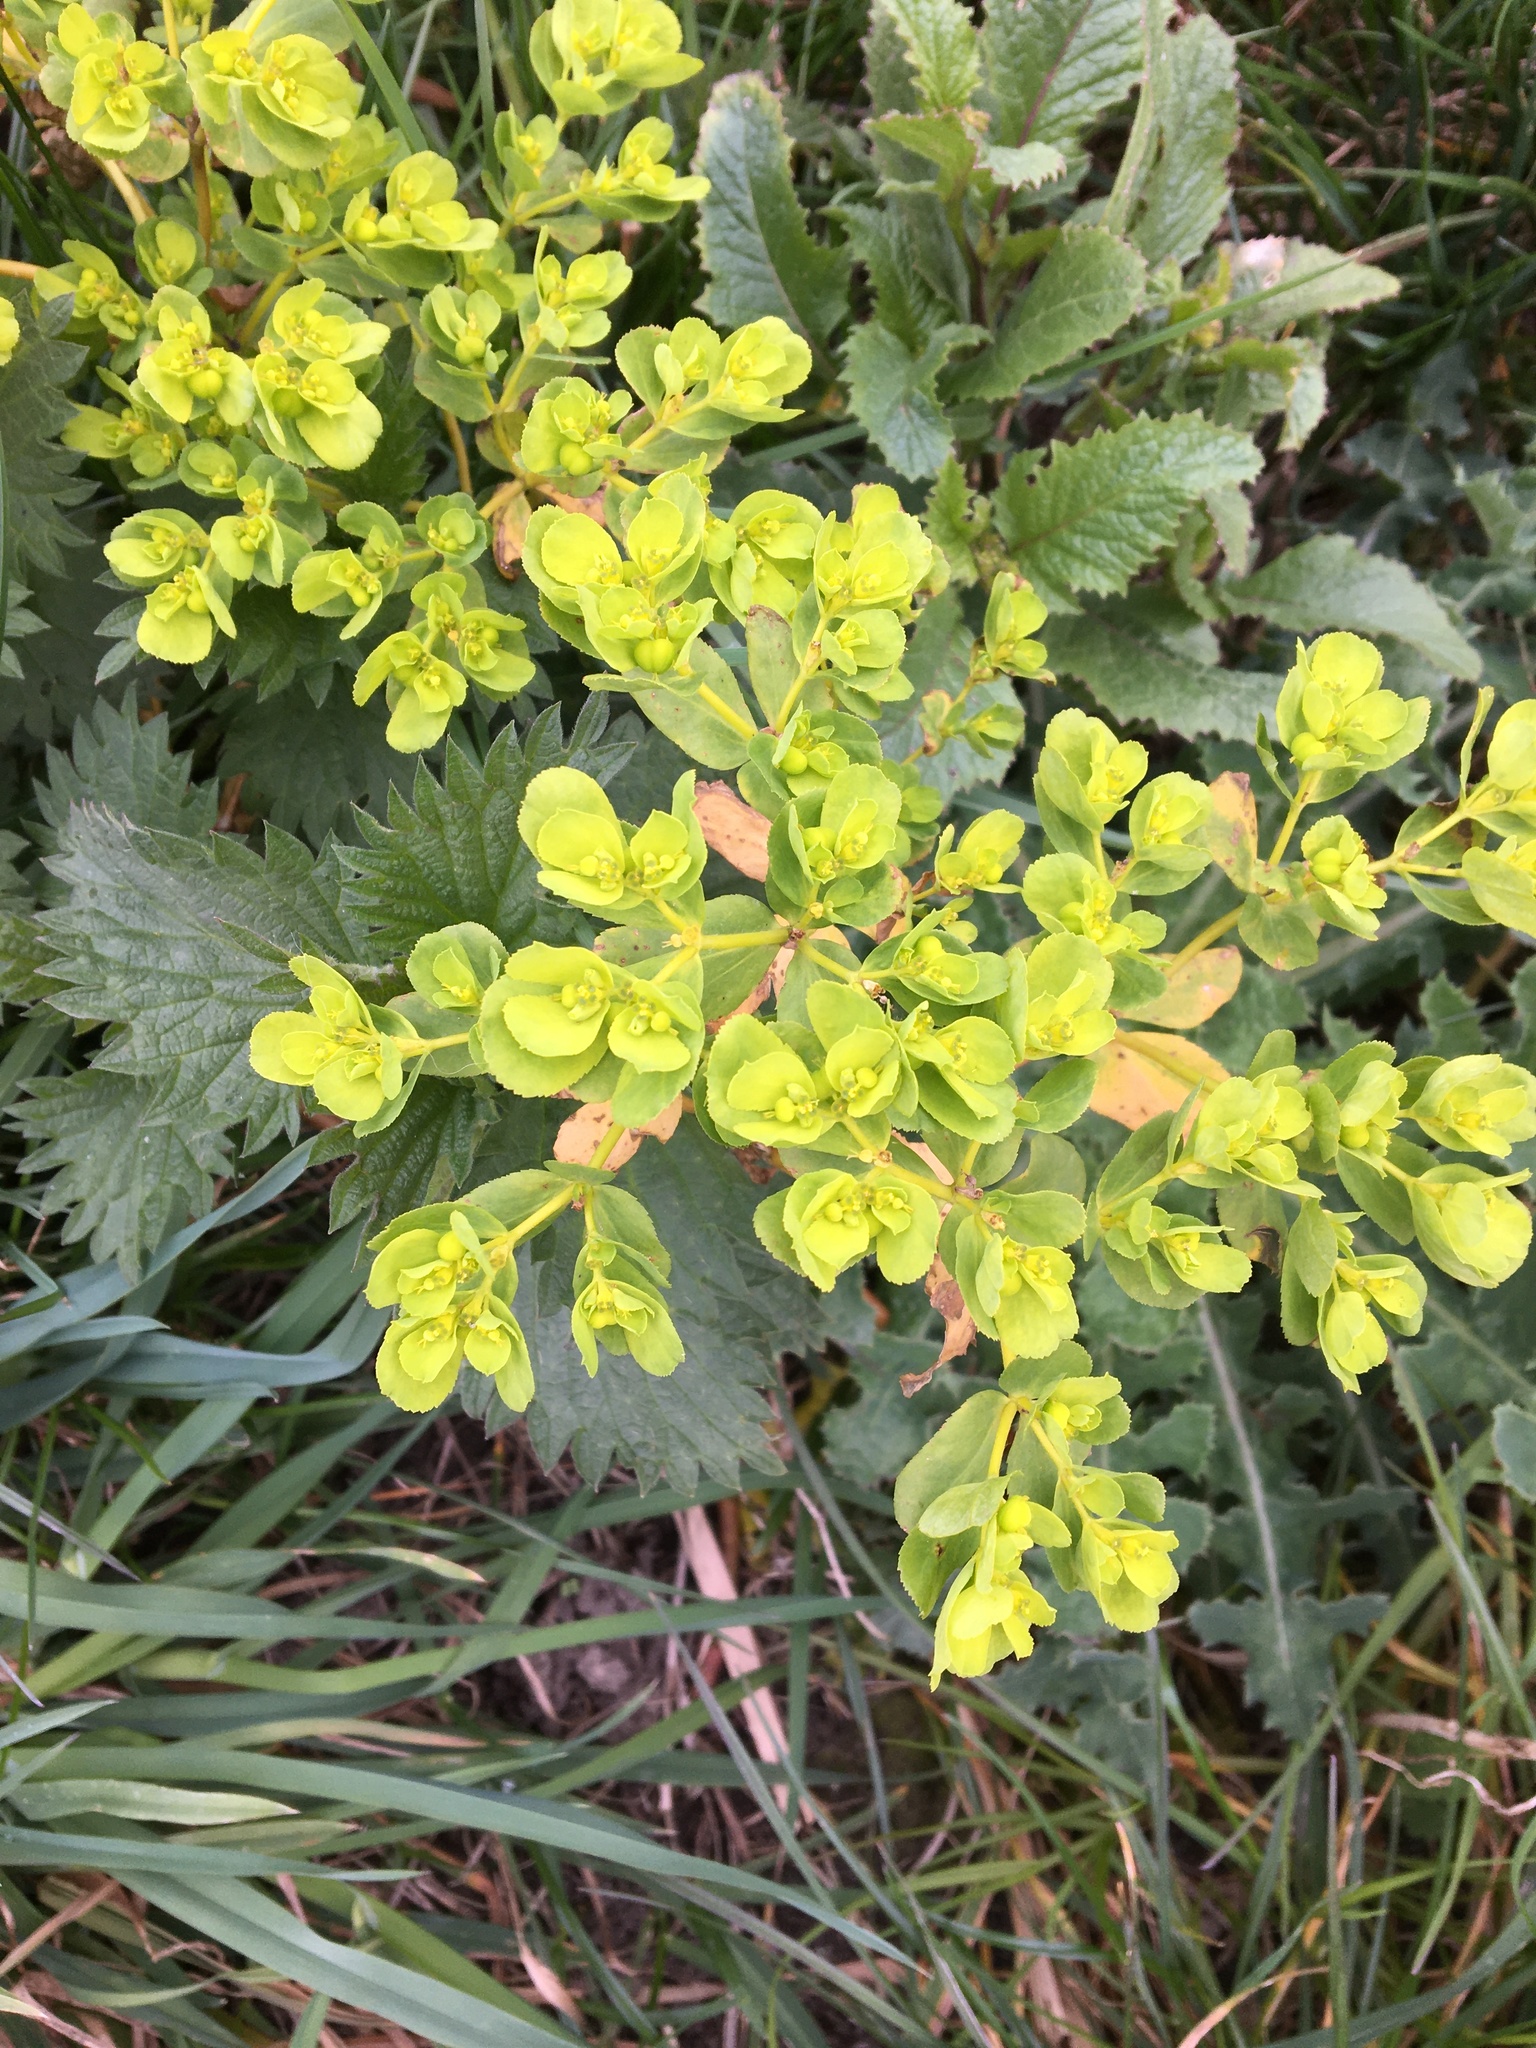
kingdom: Plantae
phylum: Tracheophyta
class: Magnoliopsida
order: Malpighiales
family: Euphorbiaceae
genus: Euphorbia
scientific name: Euphorbia helioscopia
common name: Sun spurge
